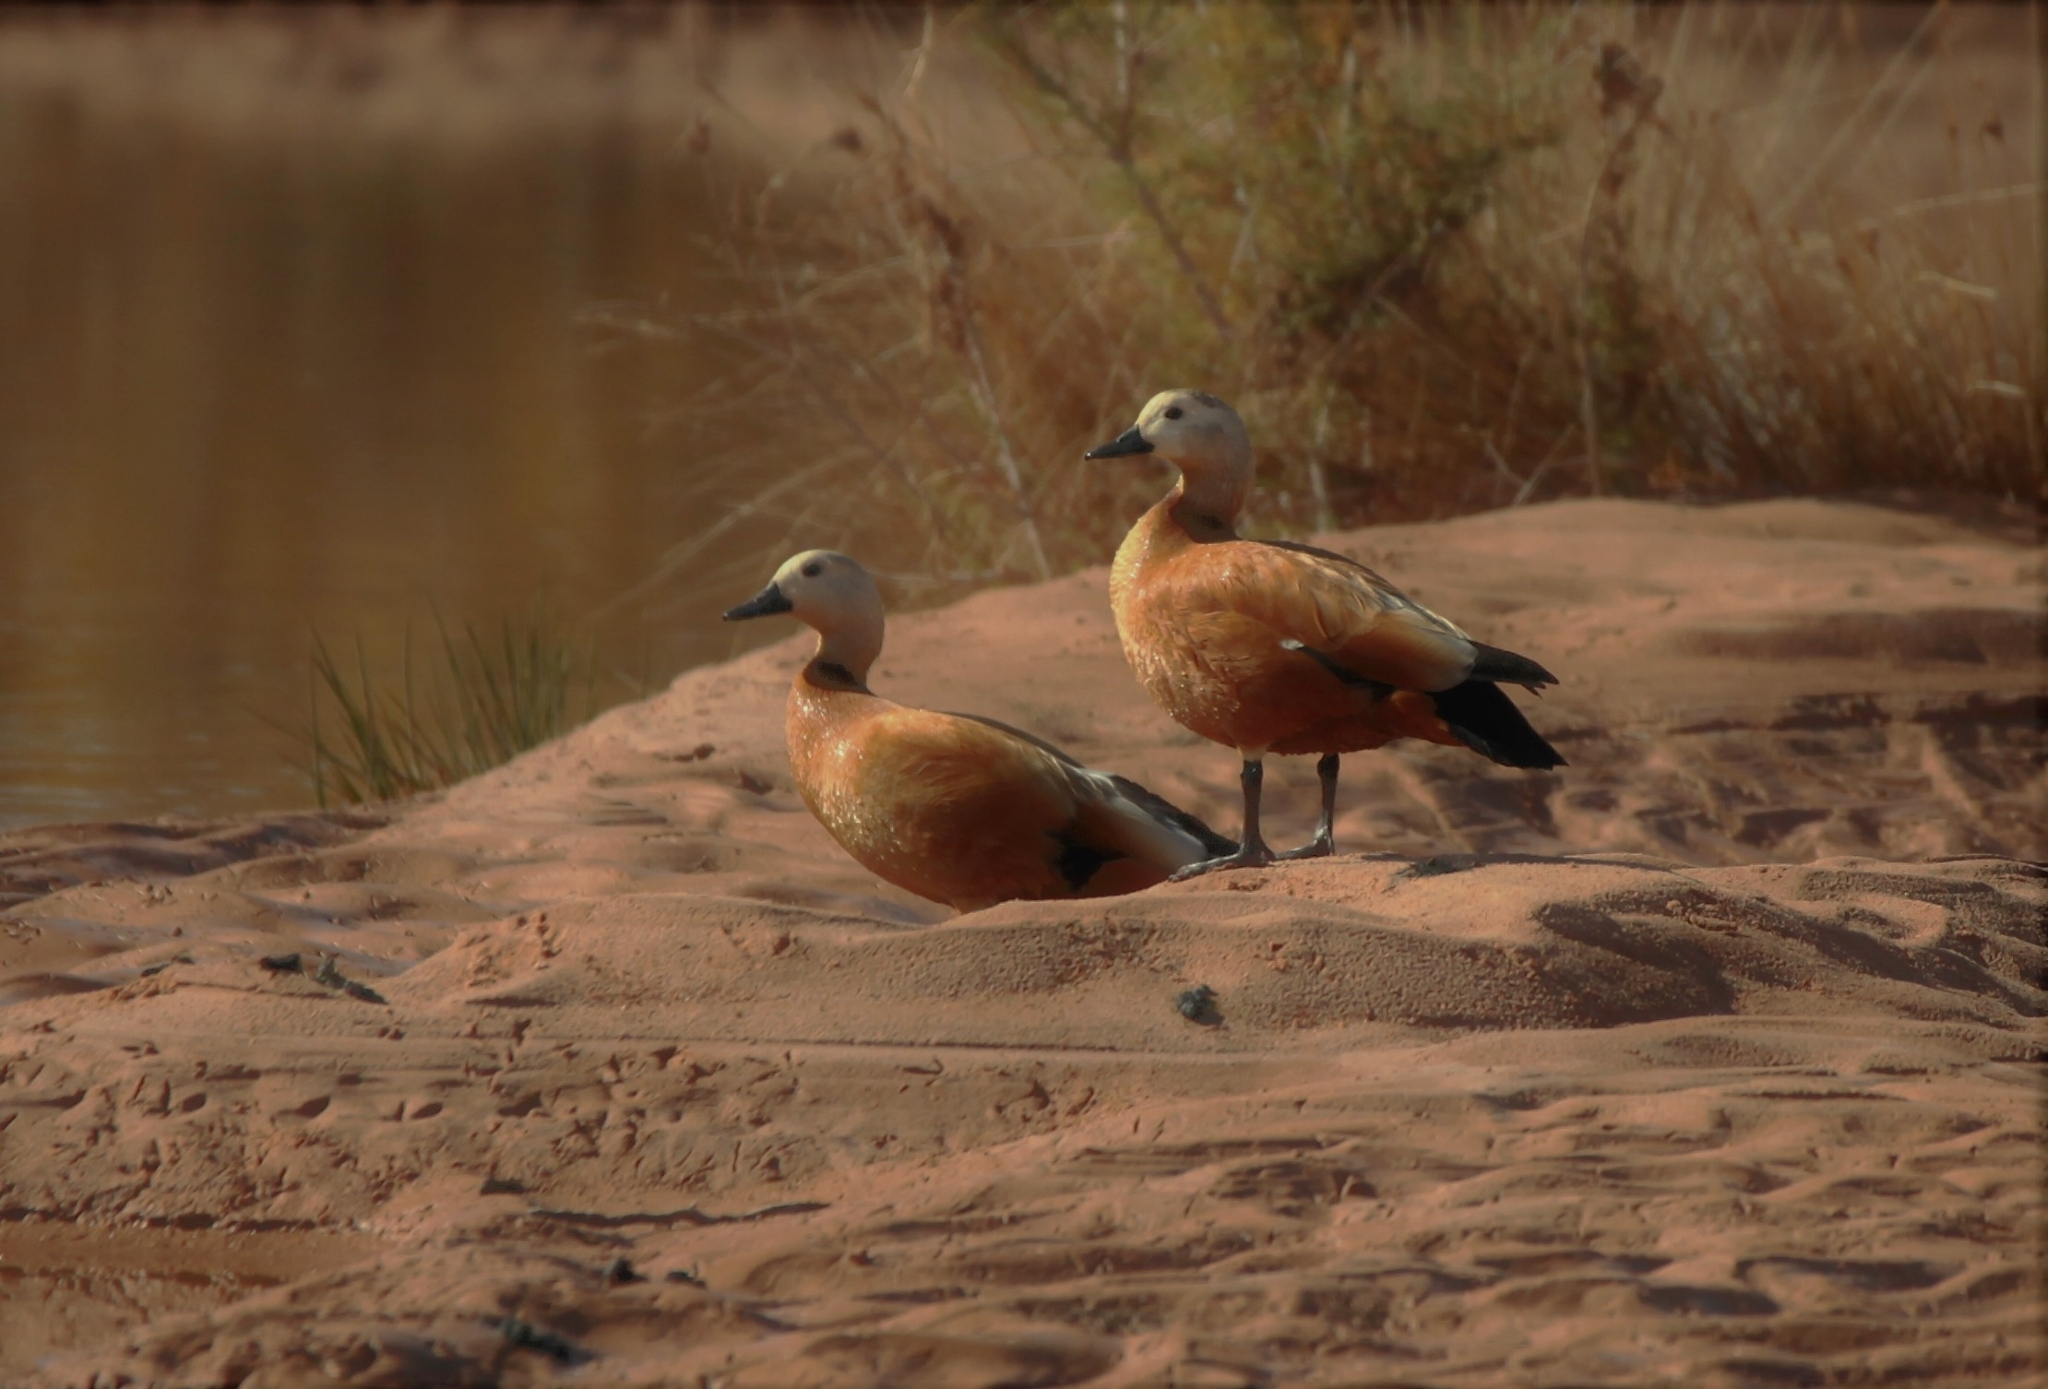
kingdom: Animalia
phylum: Chordata
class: Aves
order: Anseriformes
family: Anatidae
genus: Tadorna
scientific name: Tadorna ferruginea
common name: Ruddy shelduck
